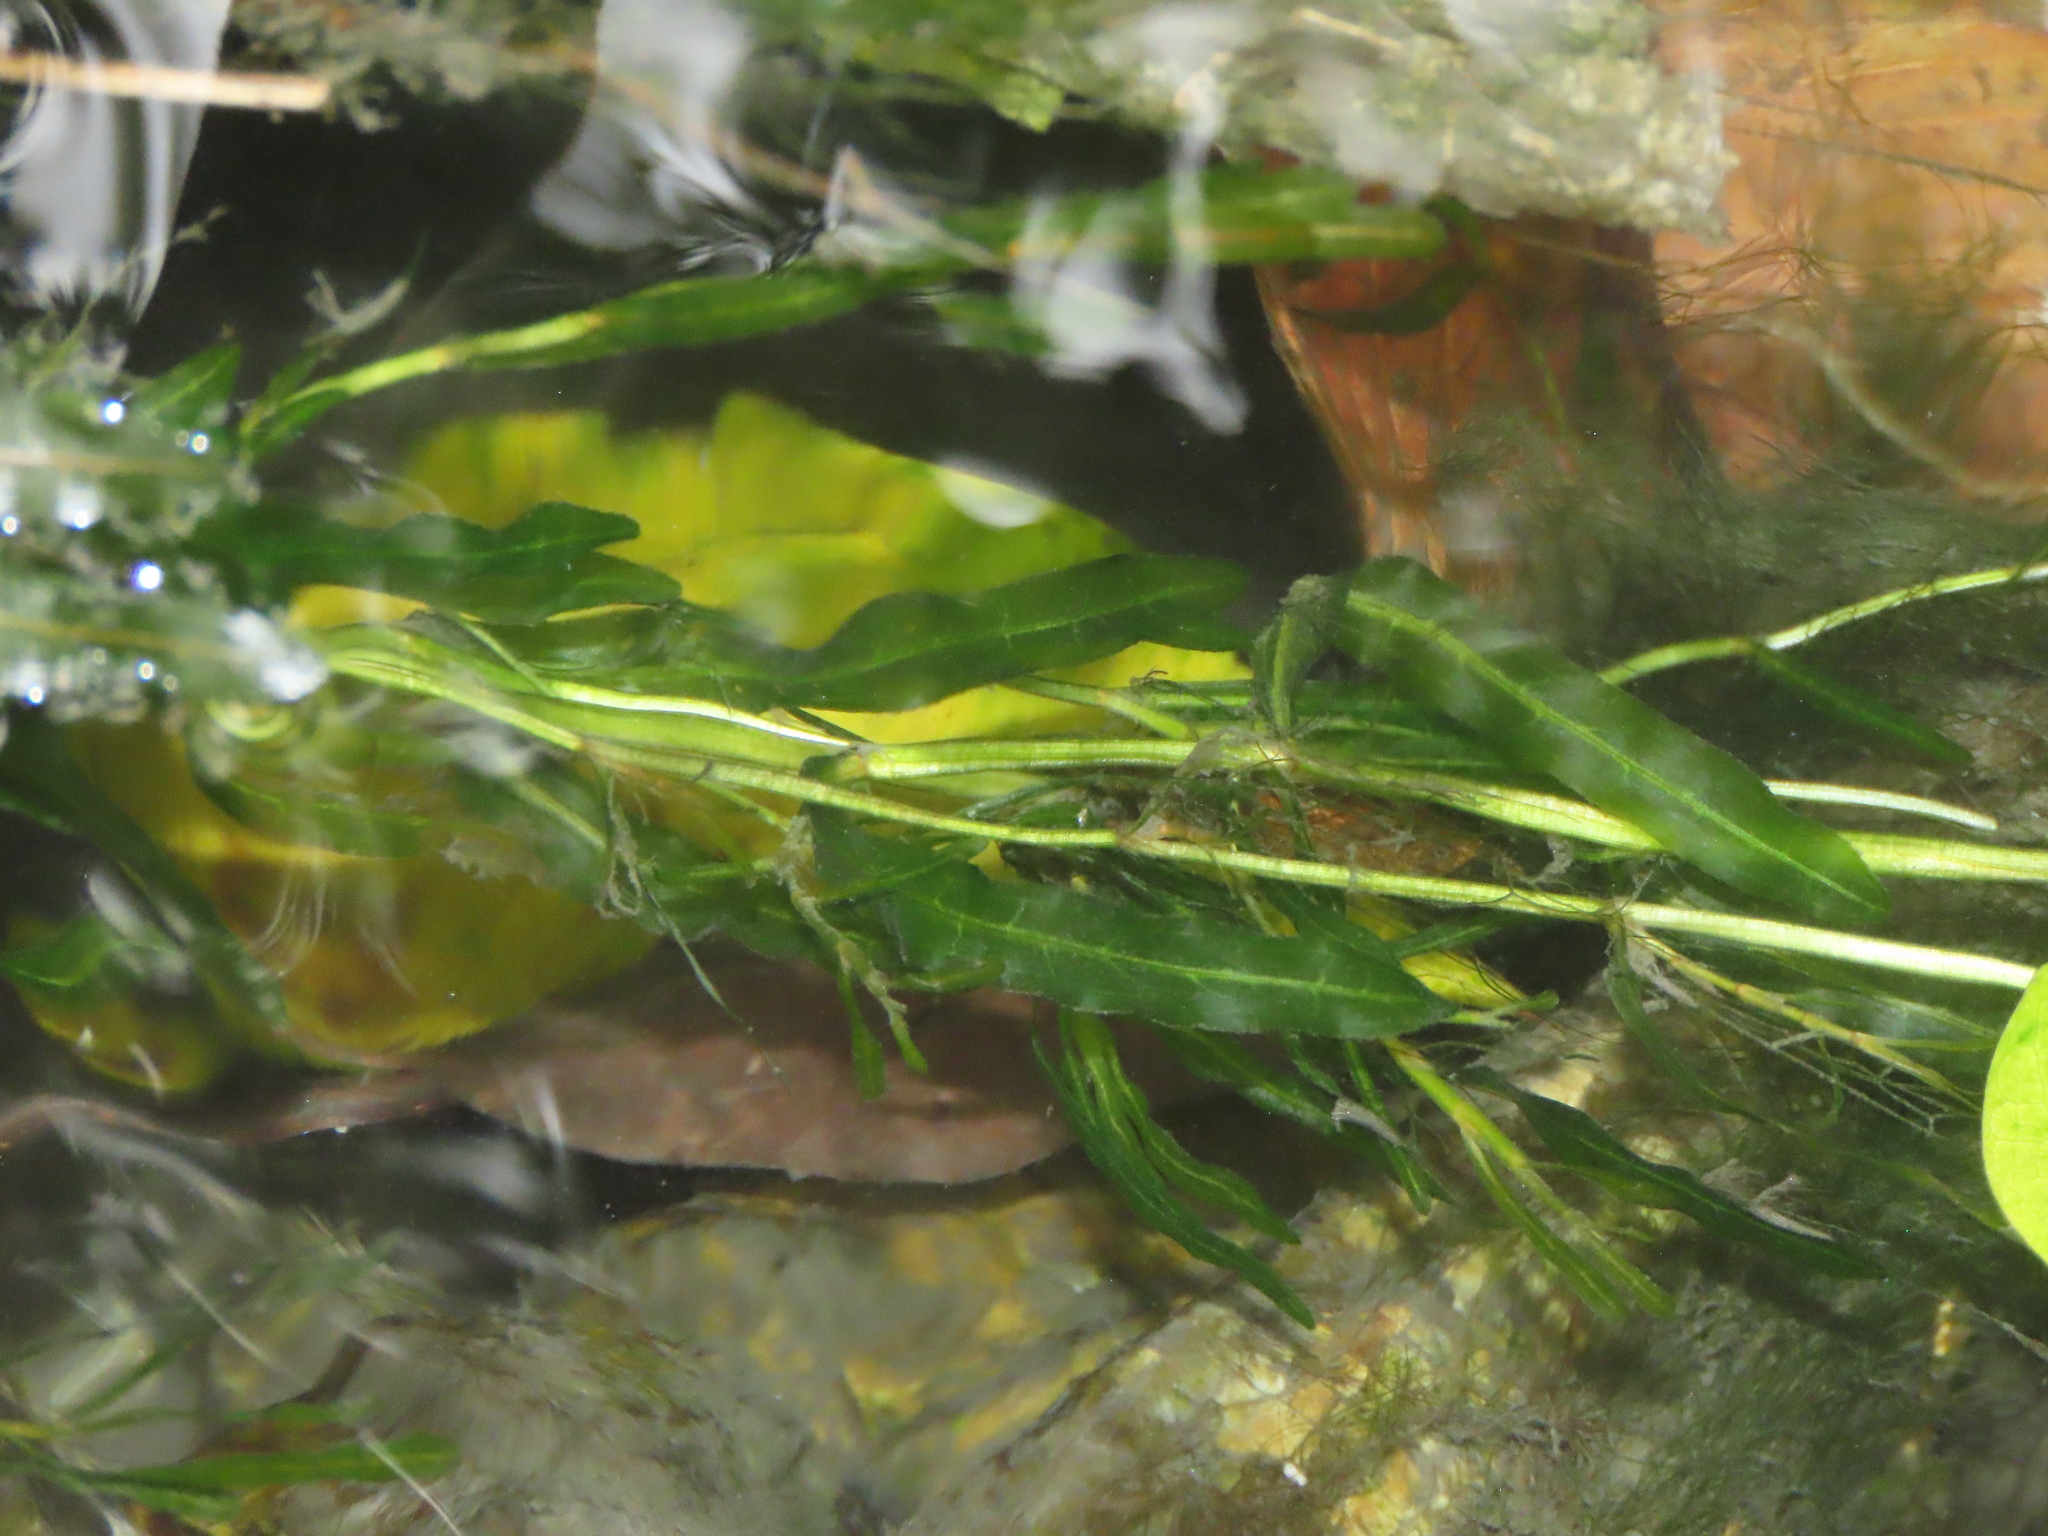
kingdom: Plantae
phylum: Tracheophyta
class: Liliopsida
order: Alismatales
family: Potamogetonaceae
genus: Potamogeton
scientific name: Potamogeton crispus
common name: Curled pondweed
